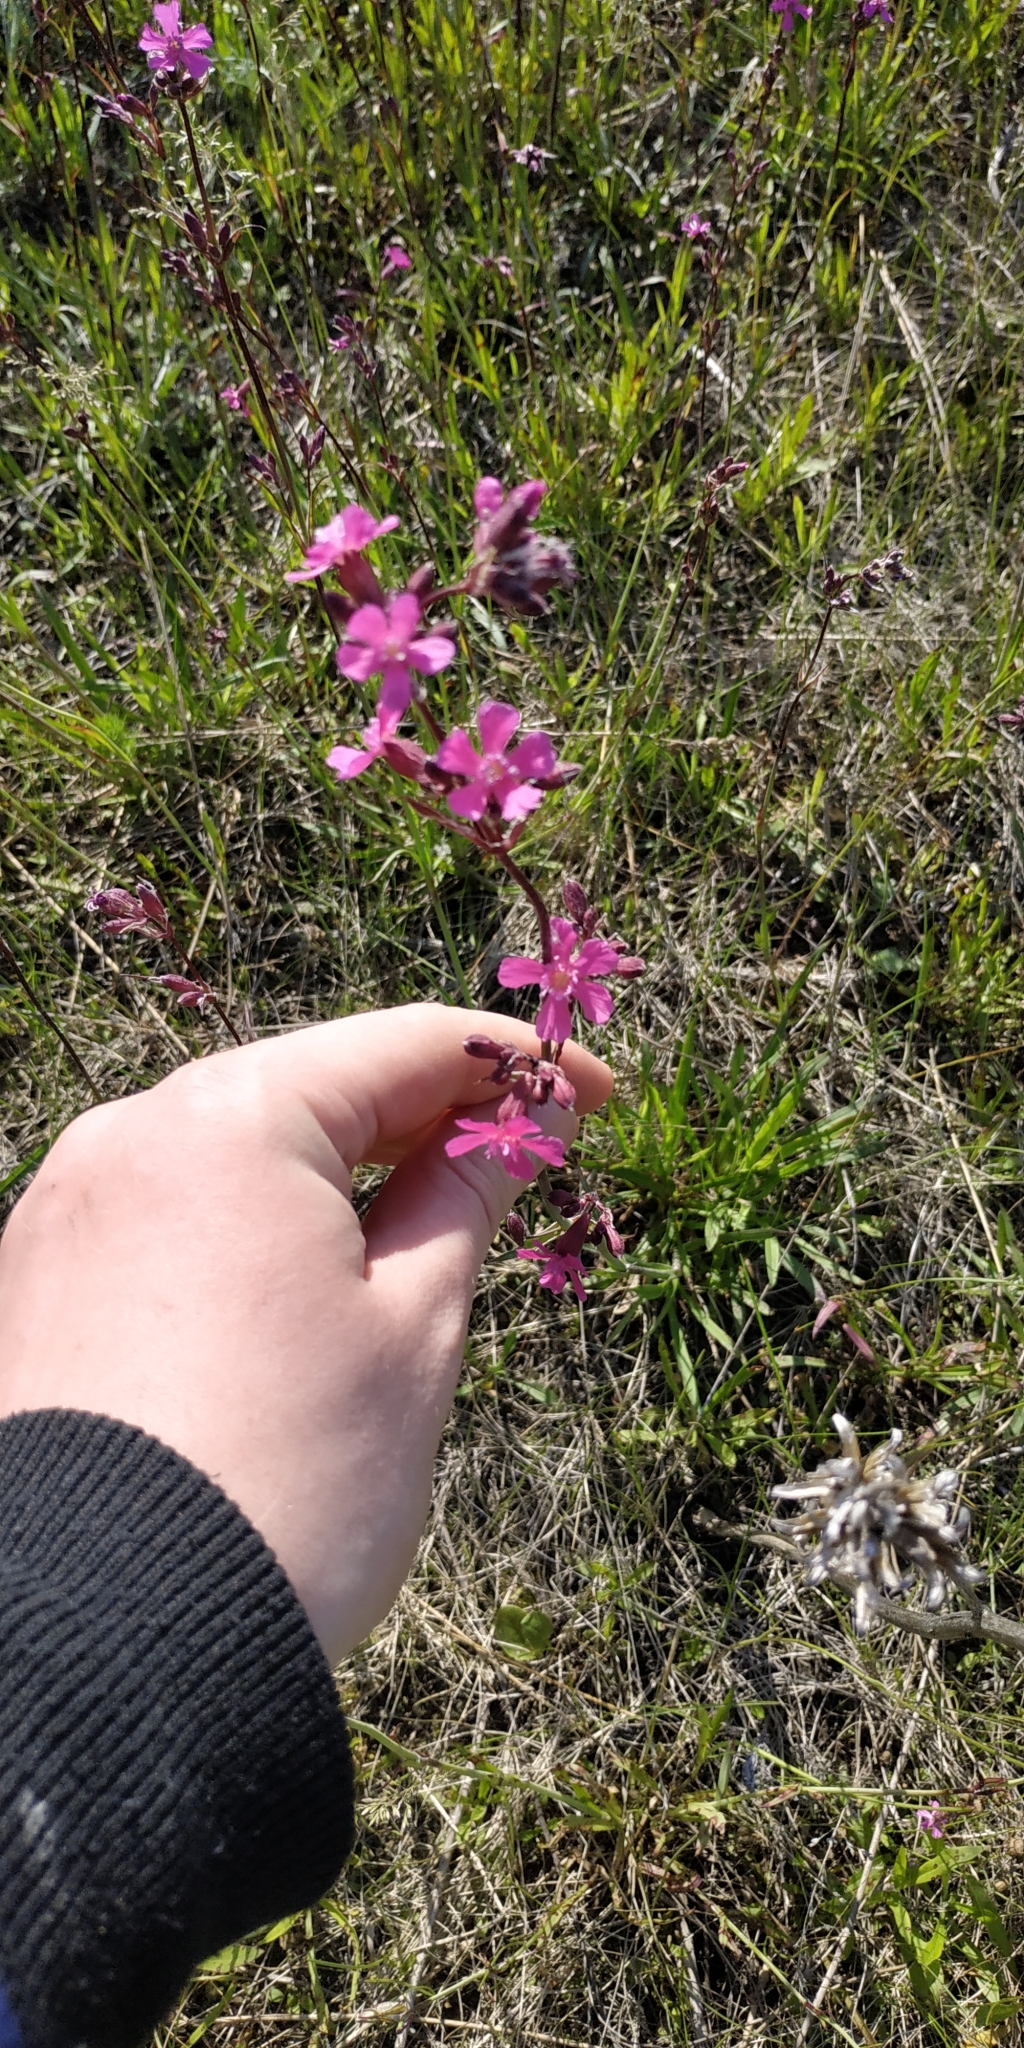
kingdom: Plantae
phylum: Tracheophyta
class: Magnoliopsida
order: Caryophyllales
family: Caryophyllaceae
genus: Viscaria
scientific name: Viscaria vulgaris
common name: Clammy campion
